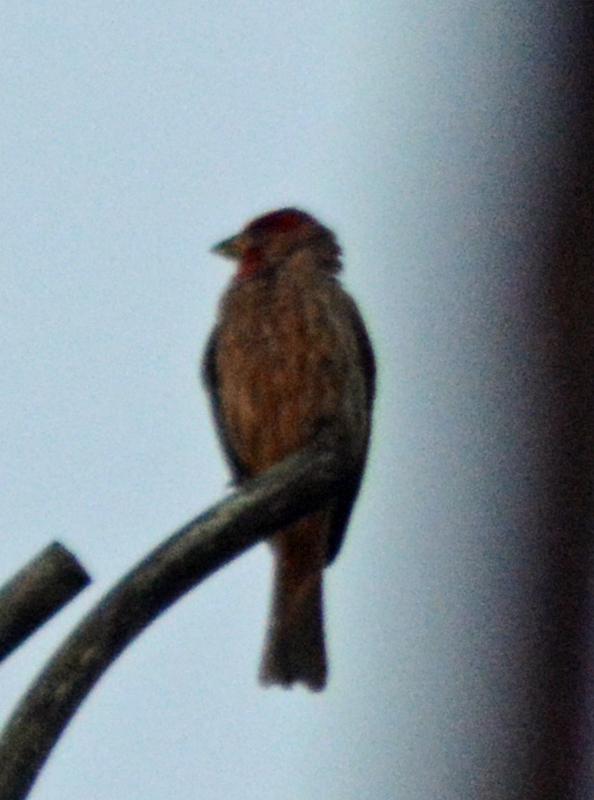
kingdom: Animalia
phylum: Chordata
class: Aves
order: Passeriformes
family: Fringillidae
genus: Haemorhous
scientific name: Haemorhous mexicanus
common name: House finch
